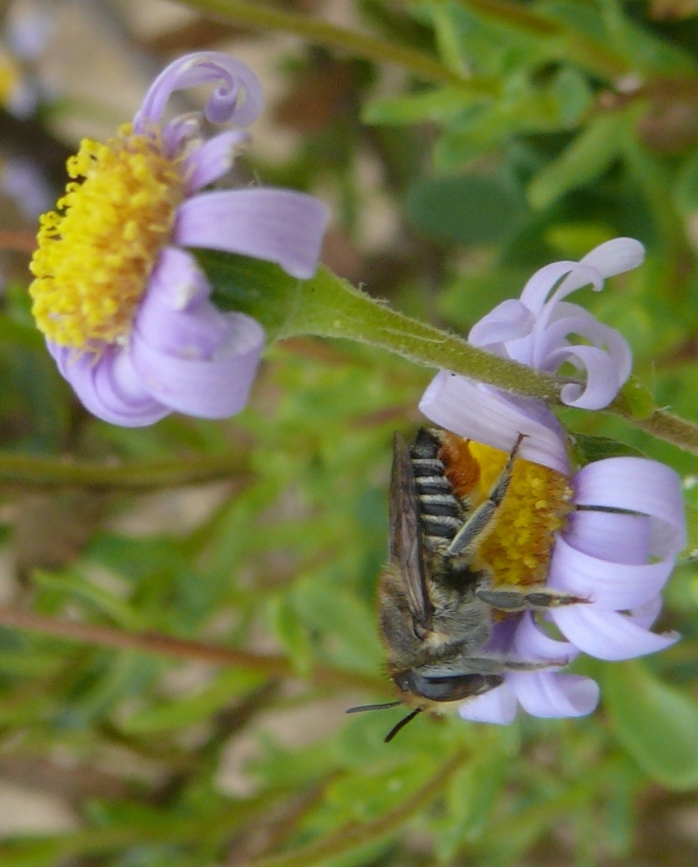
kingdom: Plantae
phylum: Tracheophyta
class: Magnoliopsida
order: Asterales
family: Asteraceae
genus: Felicia
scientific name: Felicia amoena
